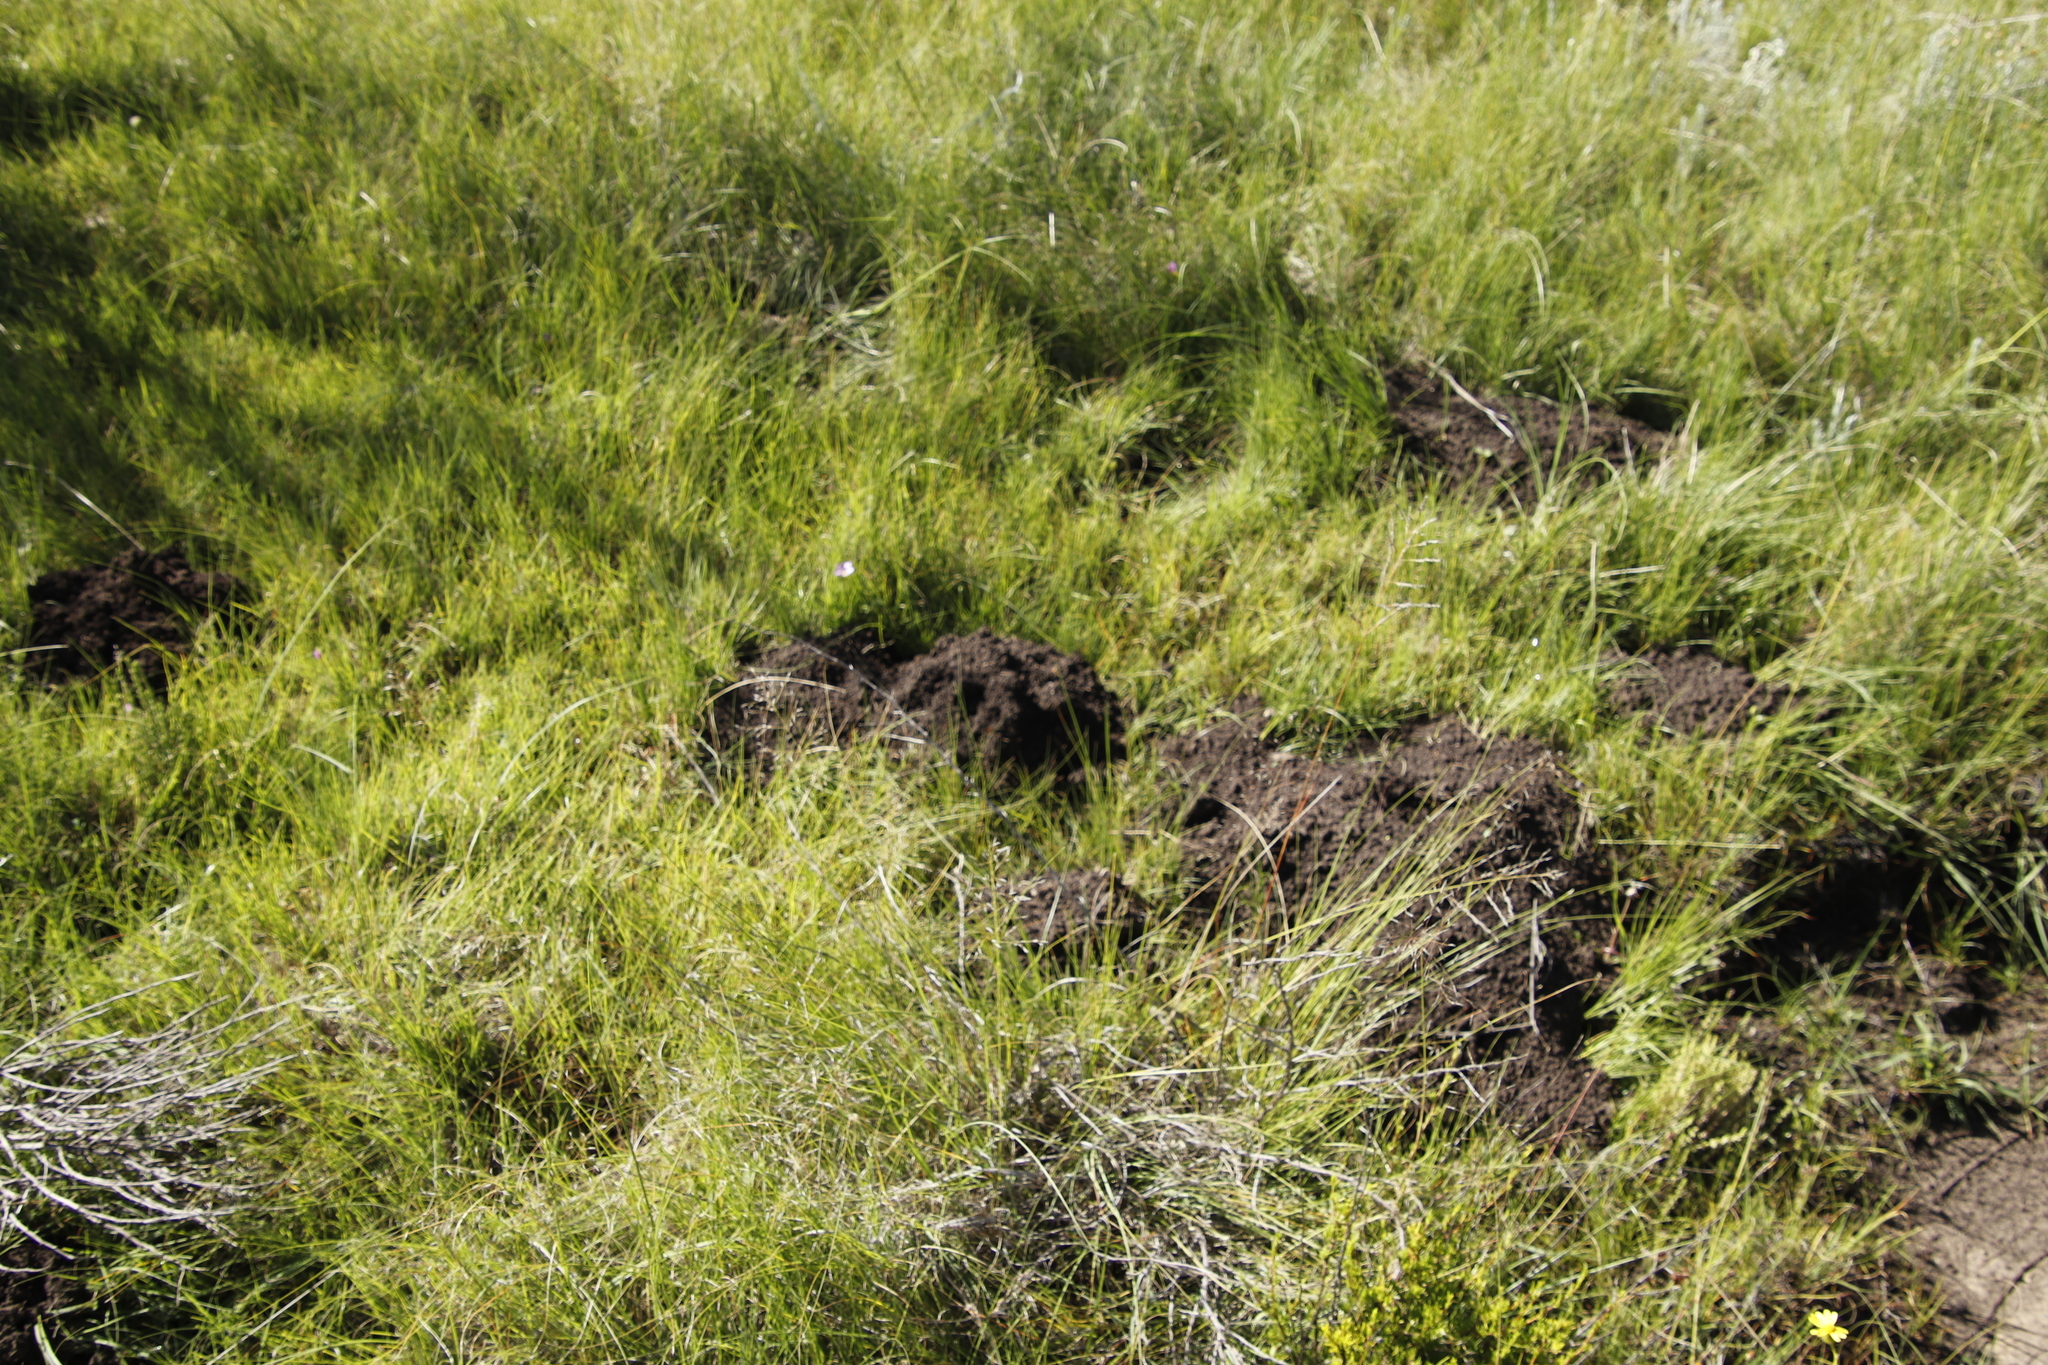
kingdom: Animalia
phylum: Chordata
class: Mammalia
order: Rodentia
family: Bathyergidae
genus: Cryptomys
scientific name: Cryptomys hottentotus
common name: Southern african mole-rat
